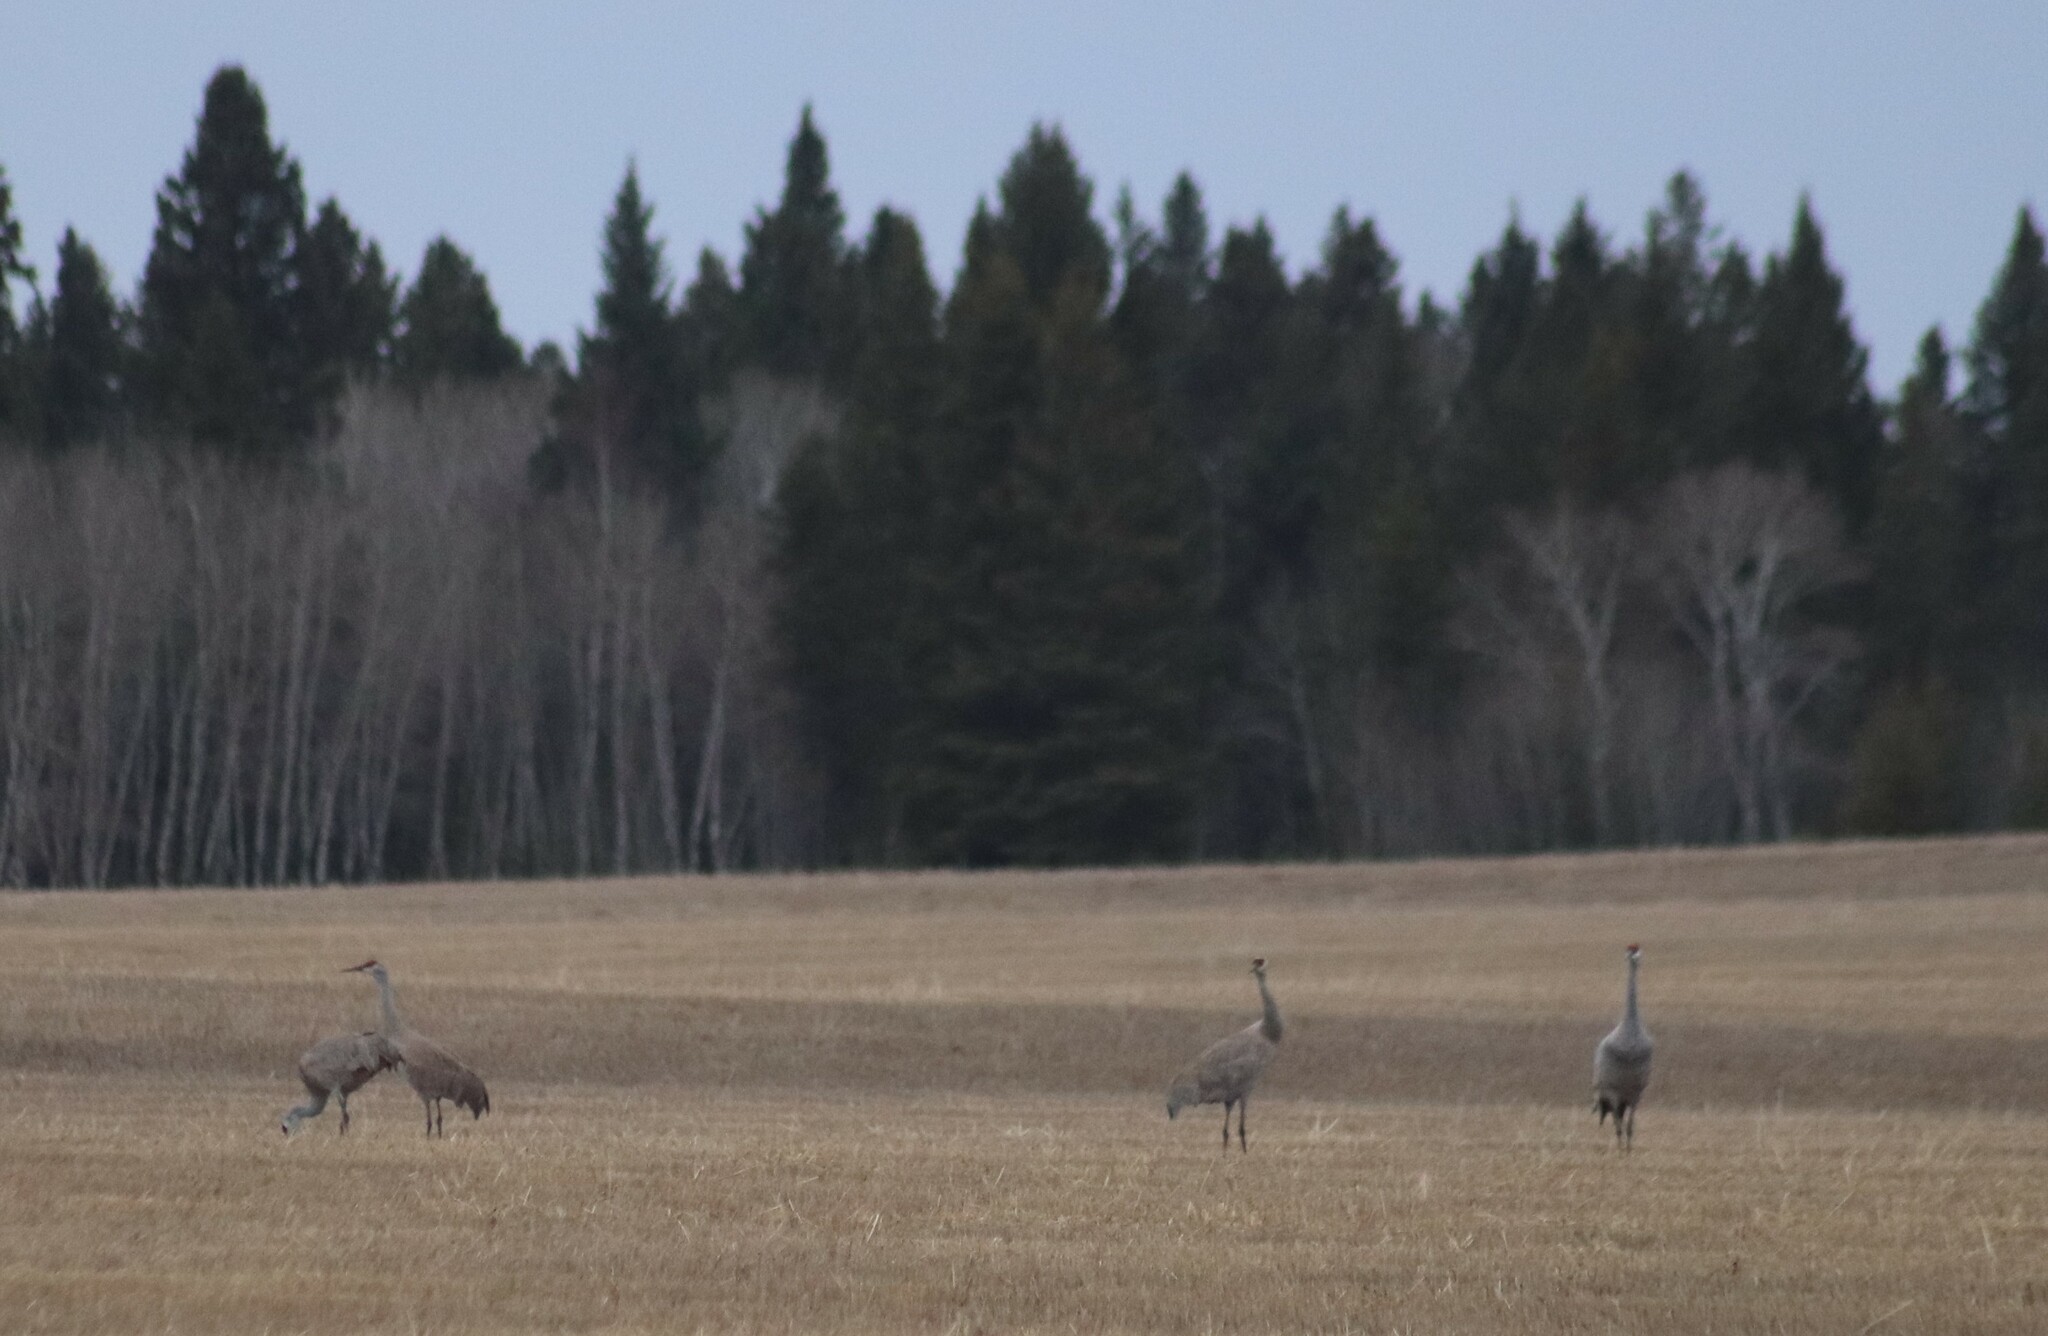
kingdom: Animalia
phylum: Chordata
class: Aves
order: Gruiformes
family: Gruidae
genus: Grus
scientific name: Grus canadensis
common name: Sandhill crane
